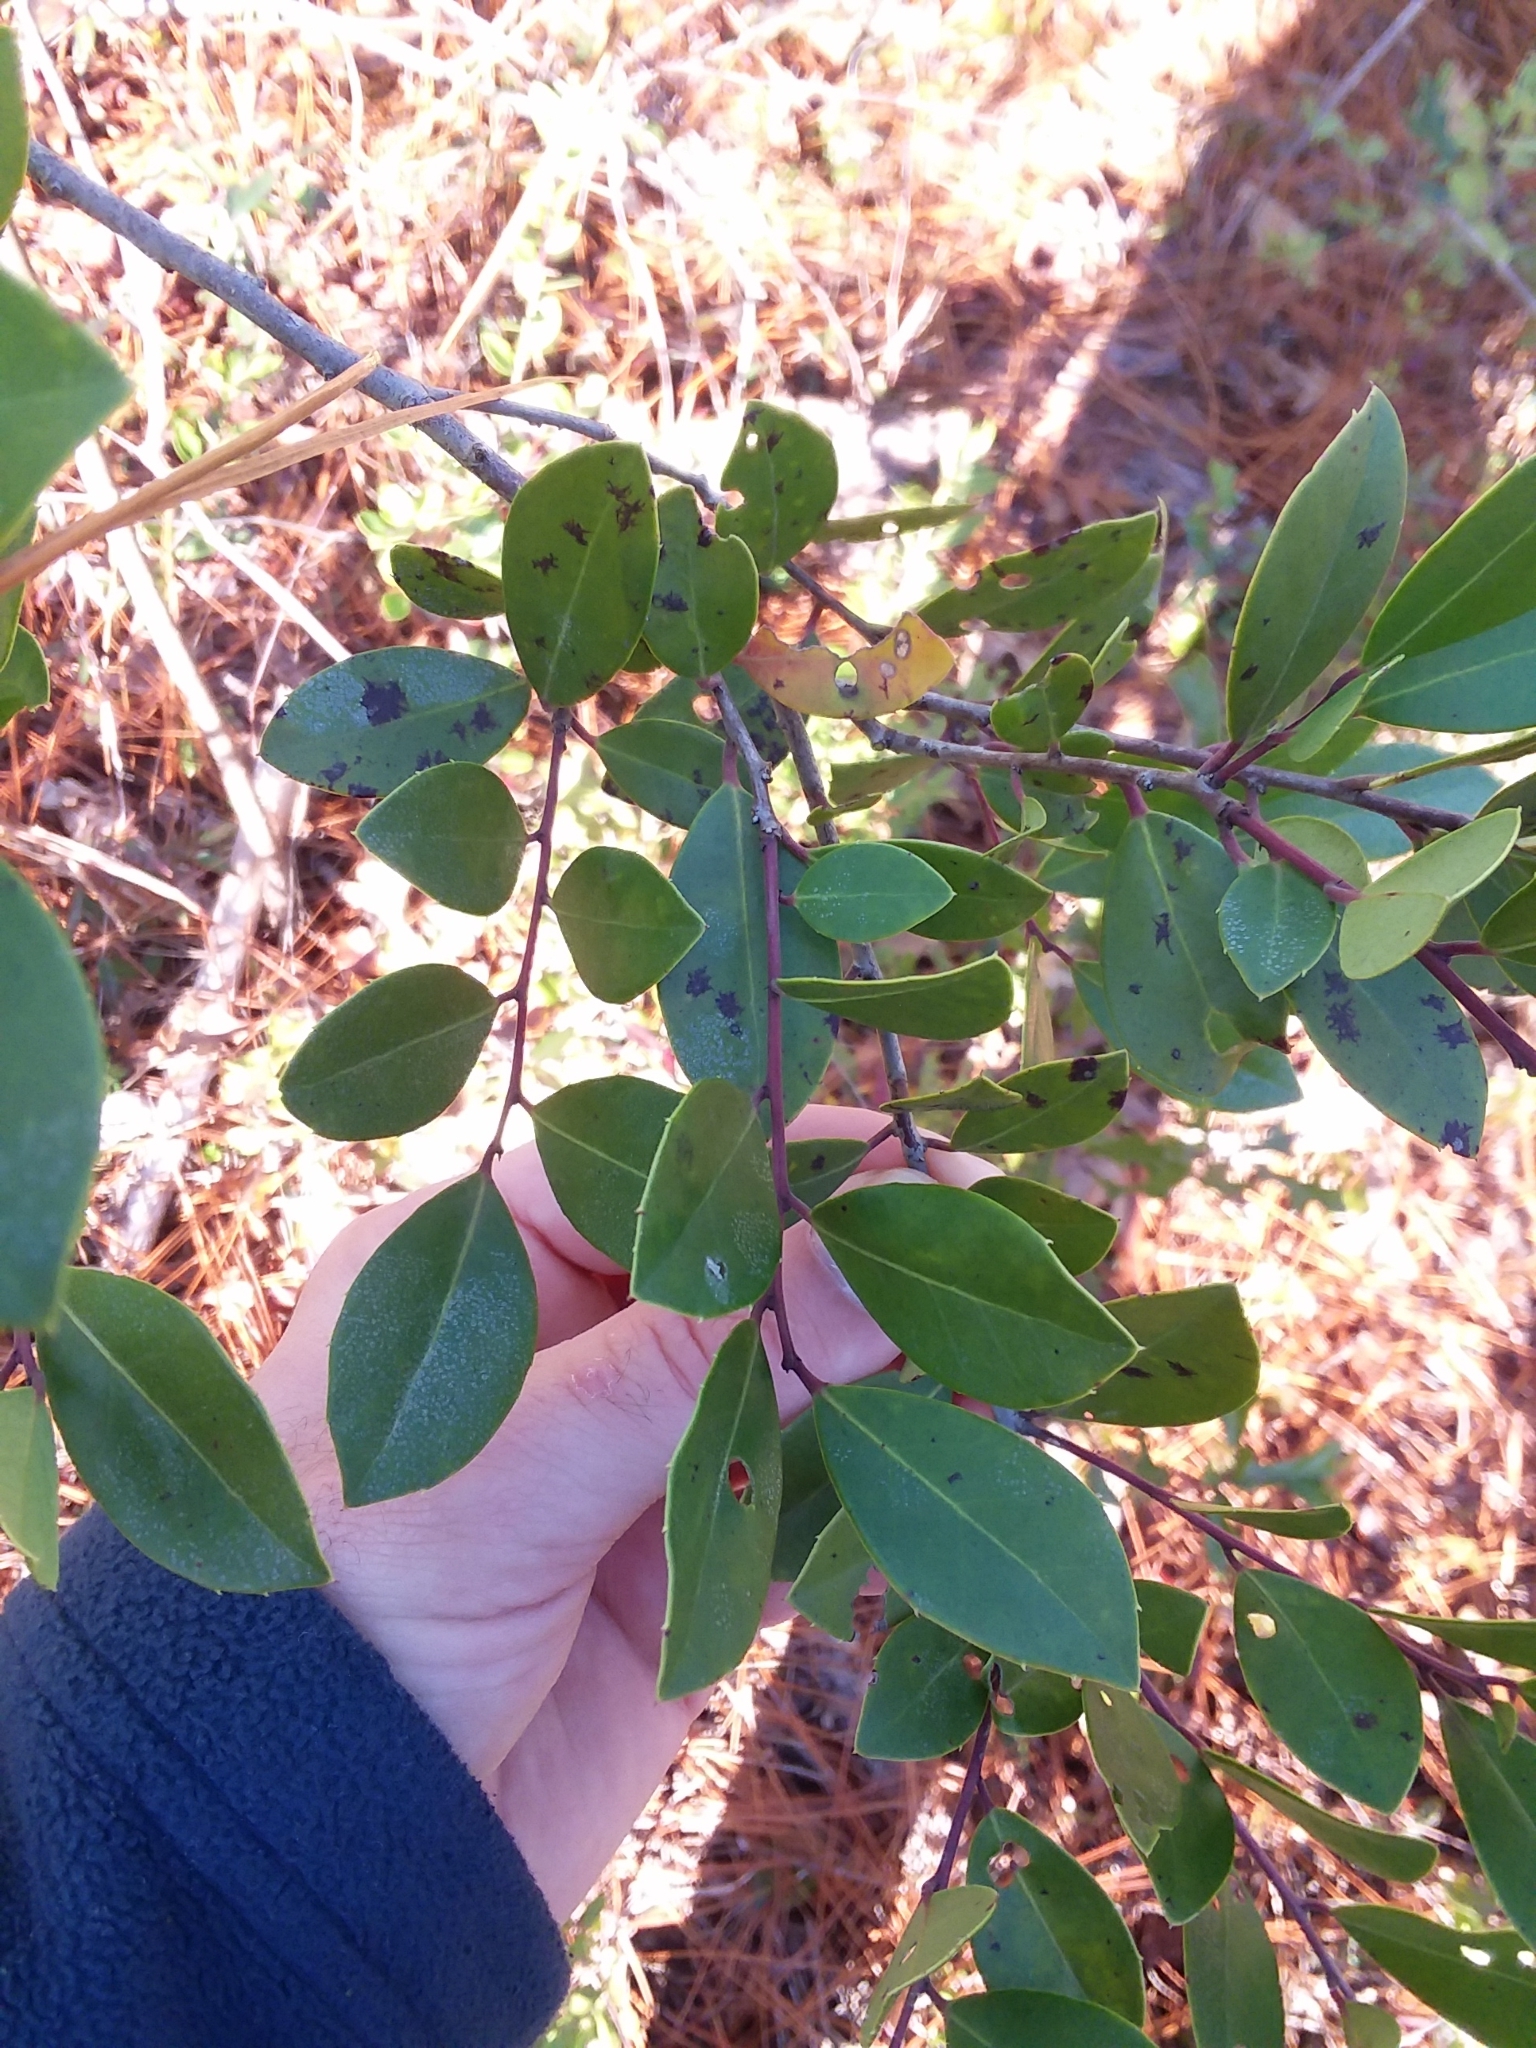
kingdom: Plantae
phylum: Tracheophyta
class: Magnoliopsida
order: Aquifoliales
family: Aquifoliaceae
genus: Ilex
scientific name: Ilex coriacea
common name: Sweet gallberry
